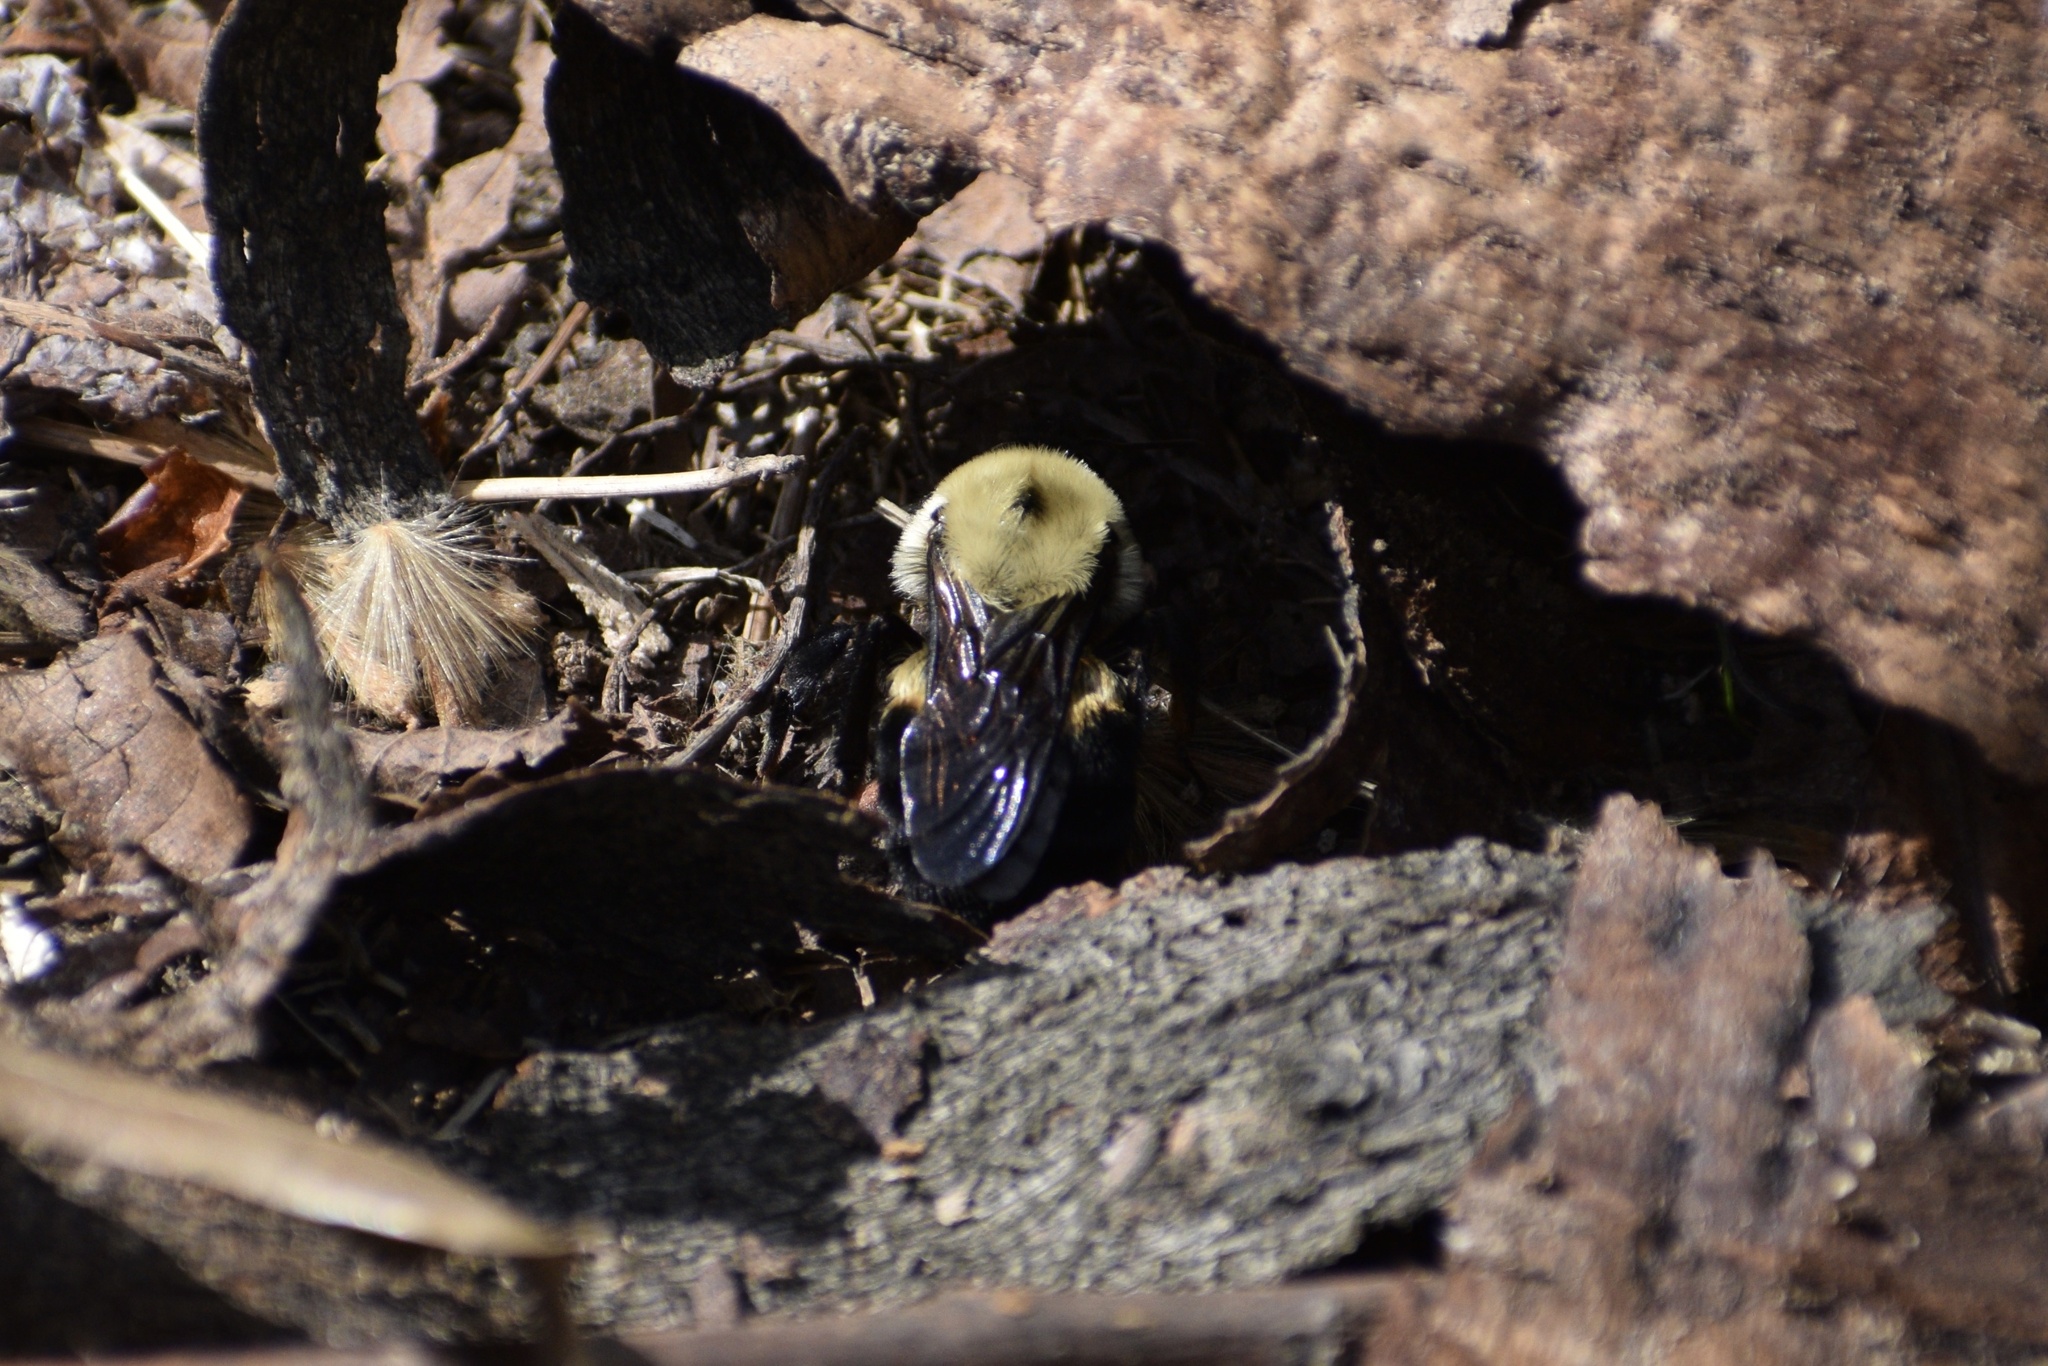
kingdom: Animalia
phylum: Arthropoda
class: Insecta
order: Hymenoptera
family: Apidae
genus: Bombus
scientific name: Bombus griseocollis
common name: Brown-belted bumble bee
